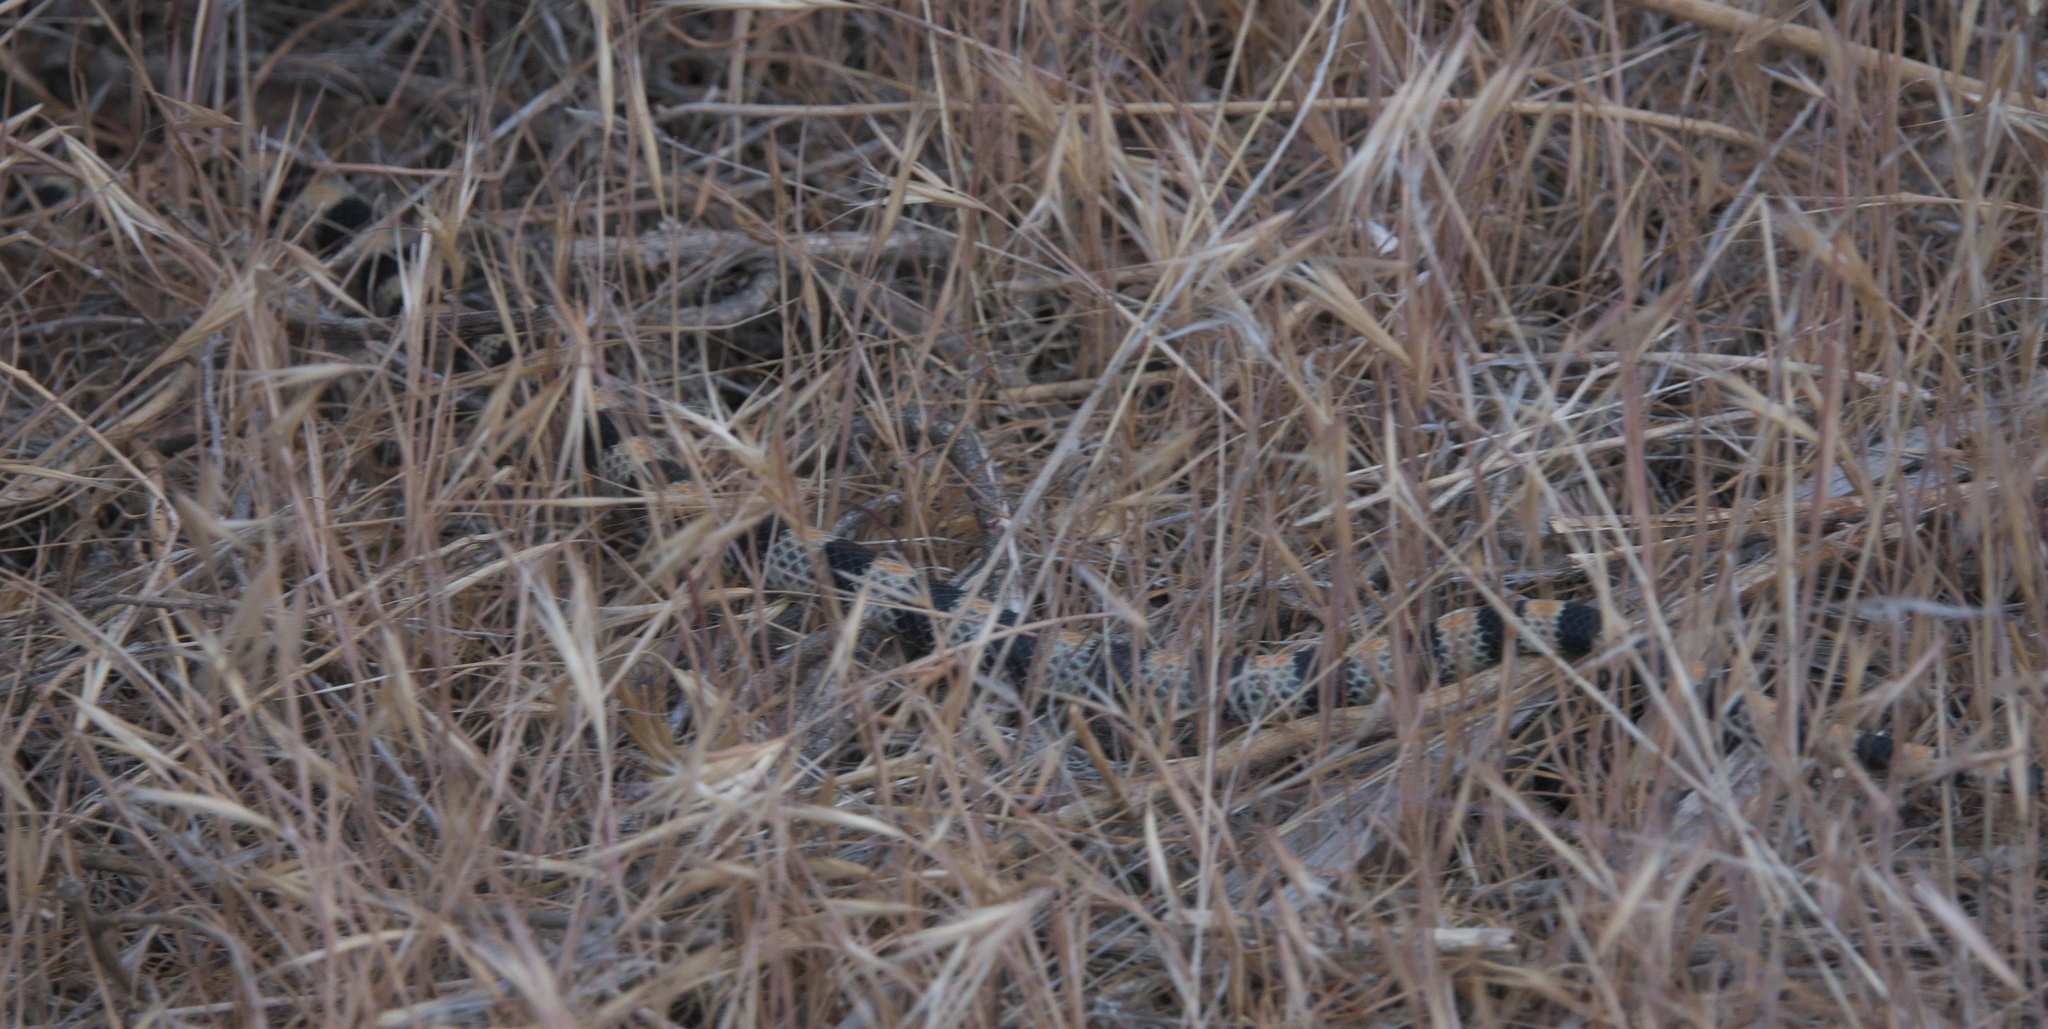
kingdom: Animalia
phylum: Chordata
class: Squamata
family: Colubridae
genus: Sonora
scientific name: Sonora semiannulata
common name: Ground snake
